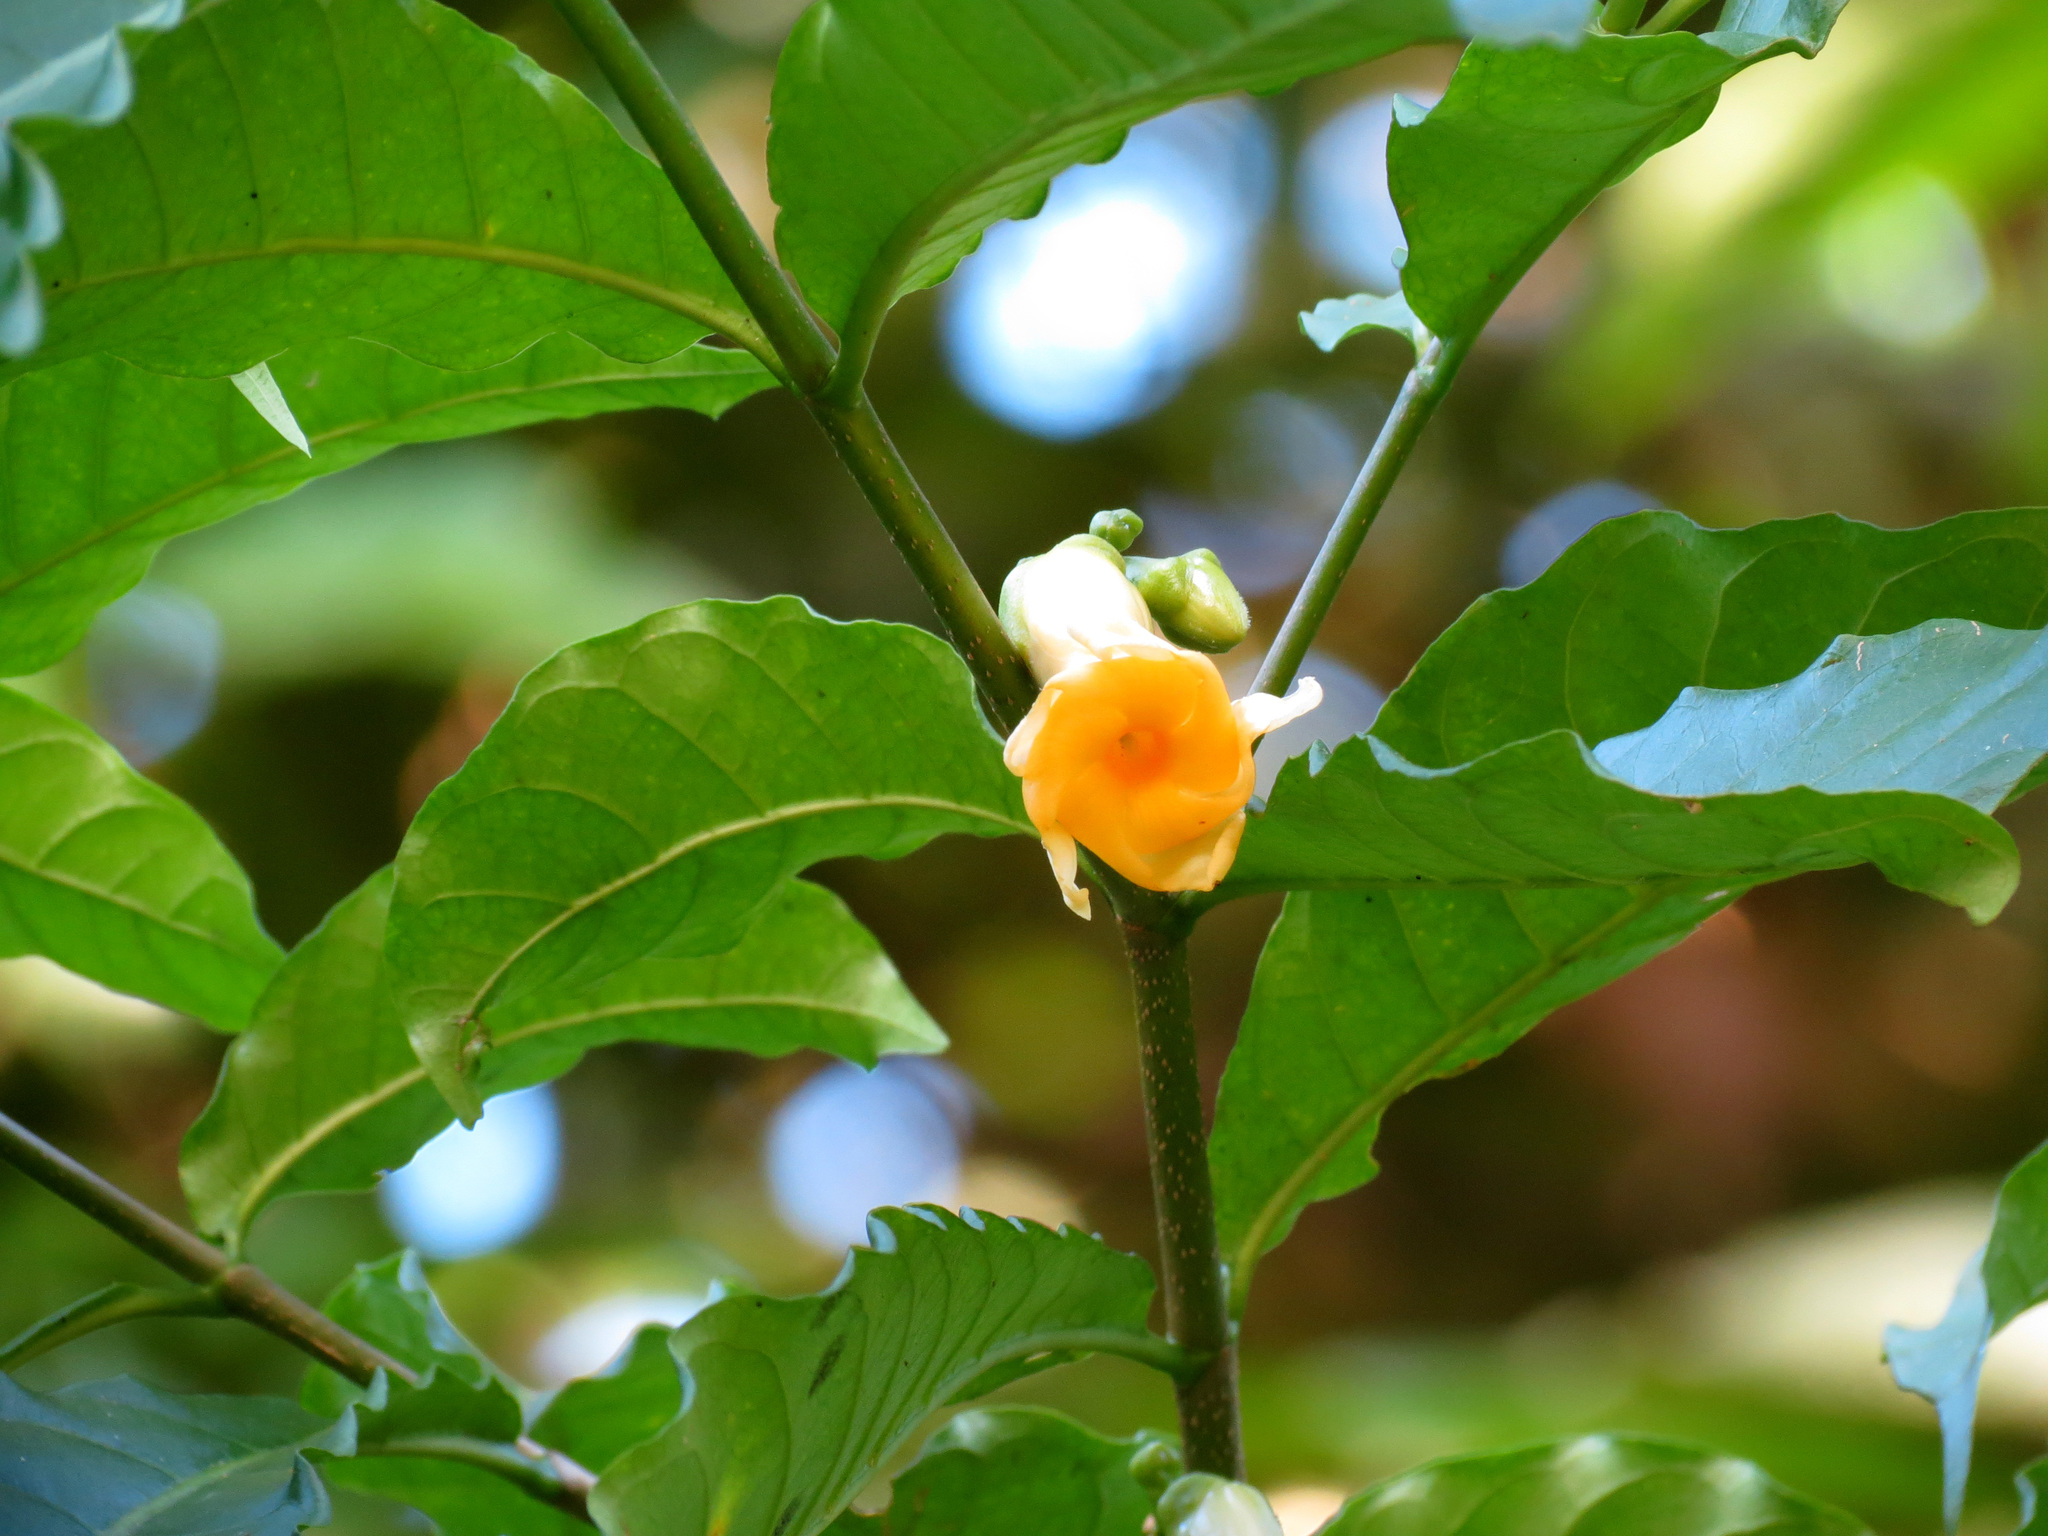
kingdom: Plantae
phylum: Tracheophyta
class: Magnoliopsida
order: Gentianales
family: Apocynaceae
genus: Tabernaemontana
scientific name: Tabernaemontana donnell-smithii
